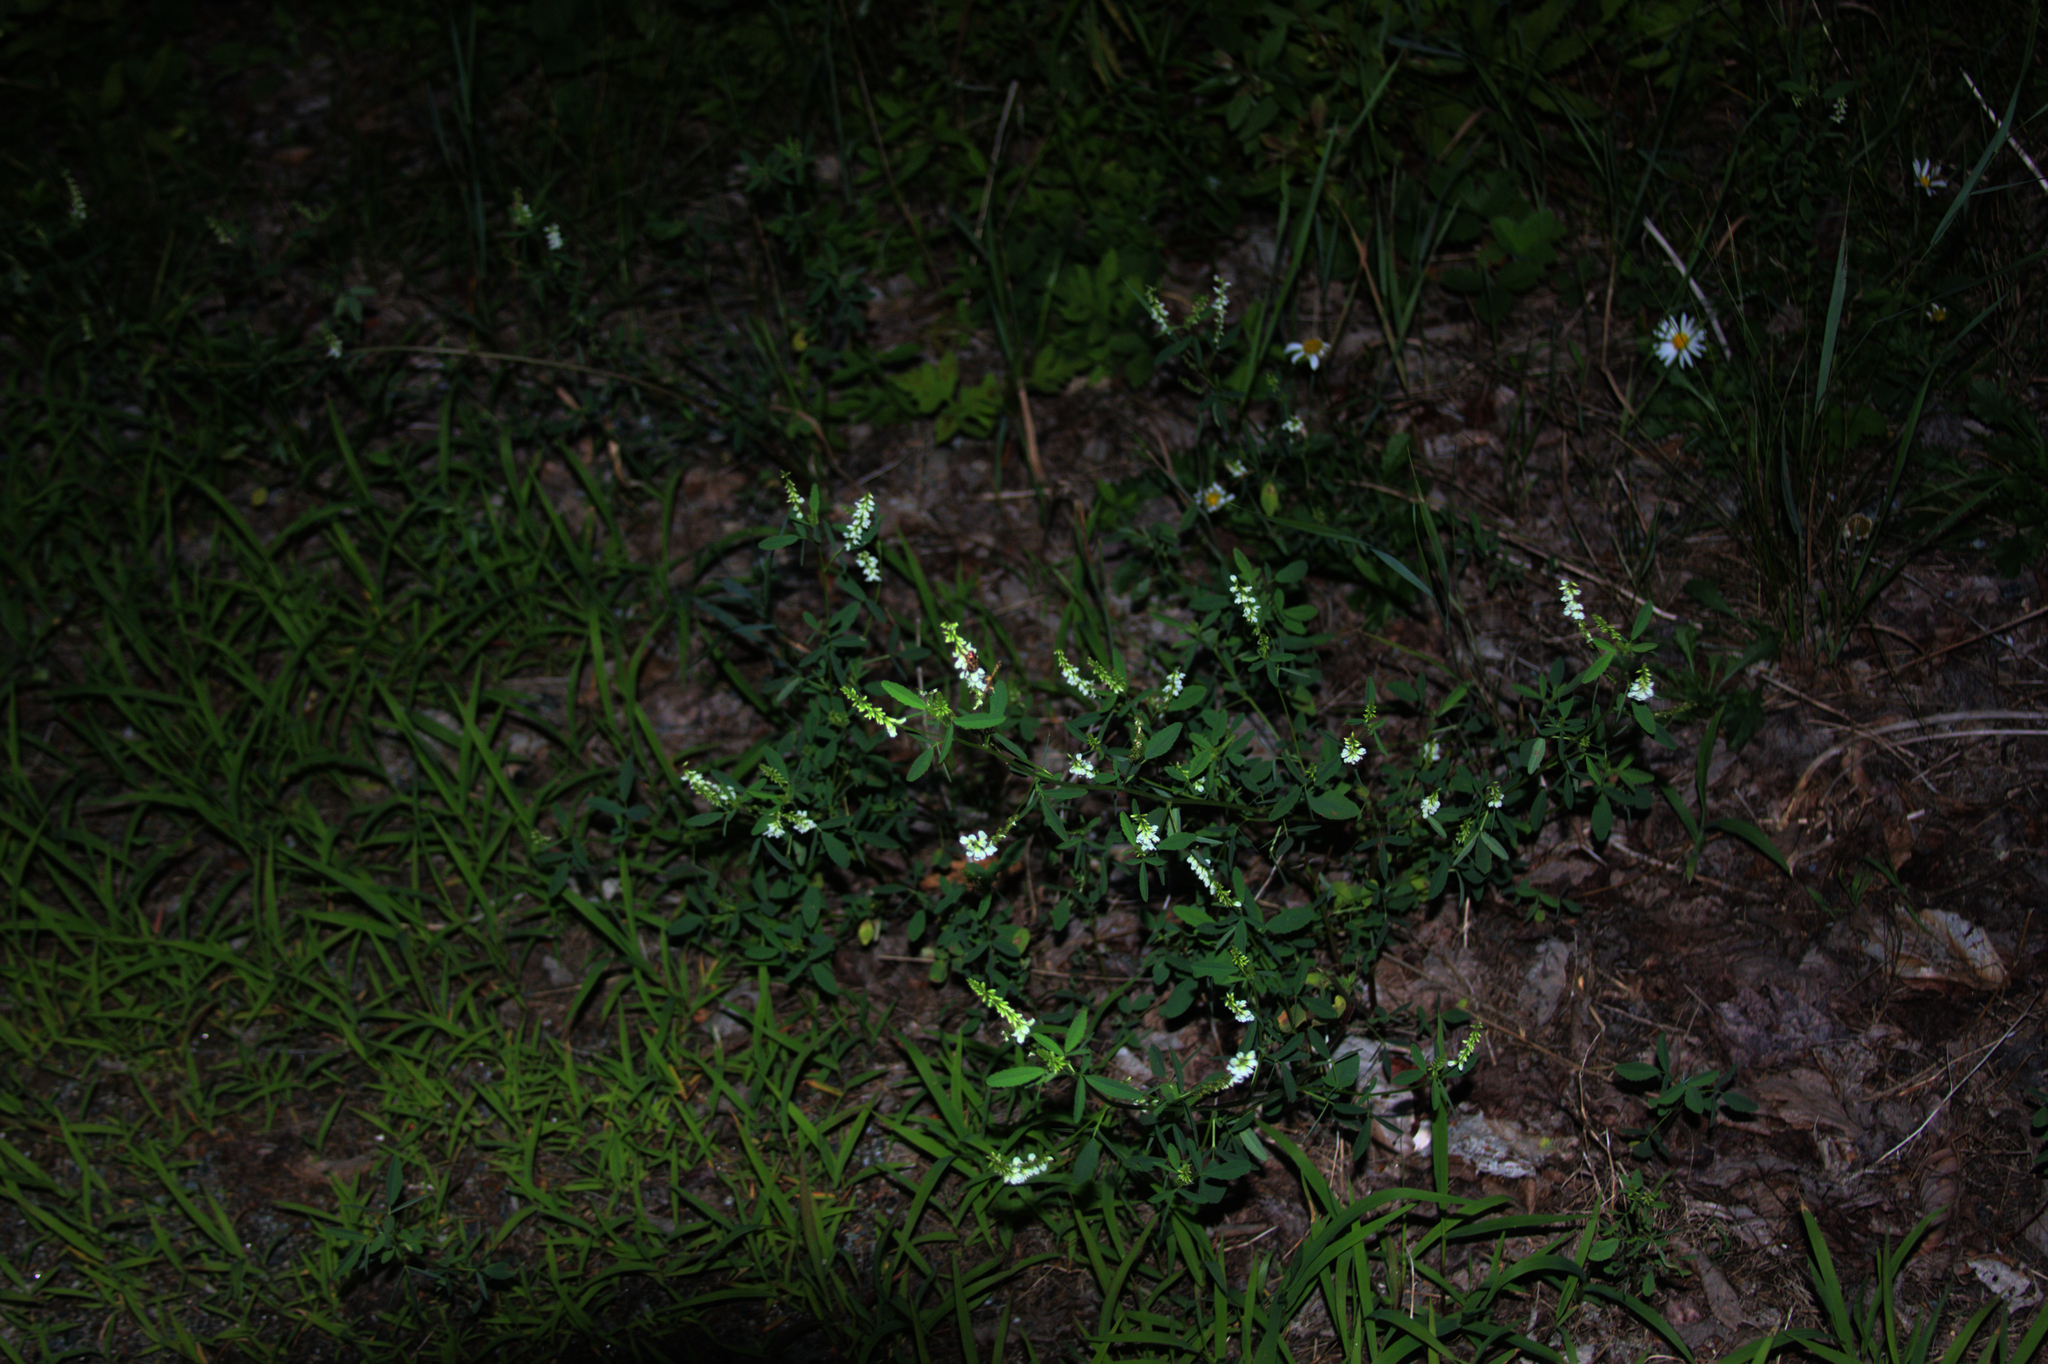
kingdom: Plantae
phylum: Tracheophyta
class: Magnoliopsida
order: Fabales
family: Fabaceae
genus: Melilotus
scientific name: Melilotus albus
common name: White melilot
